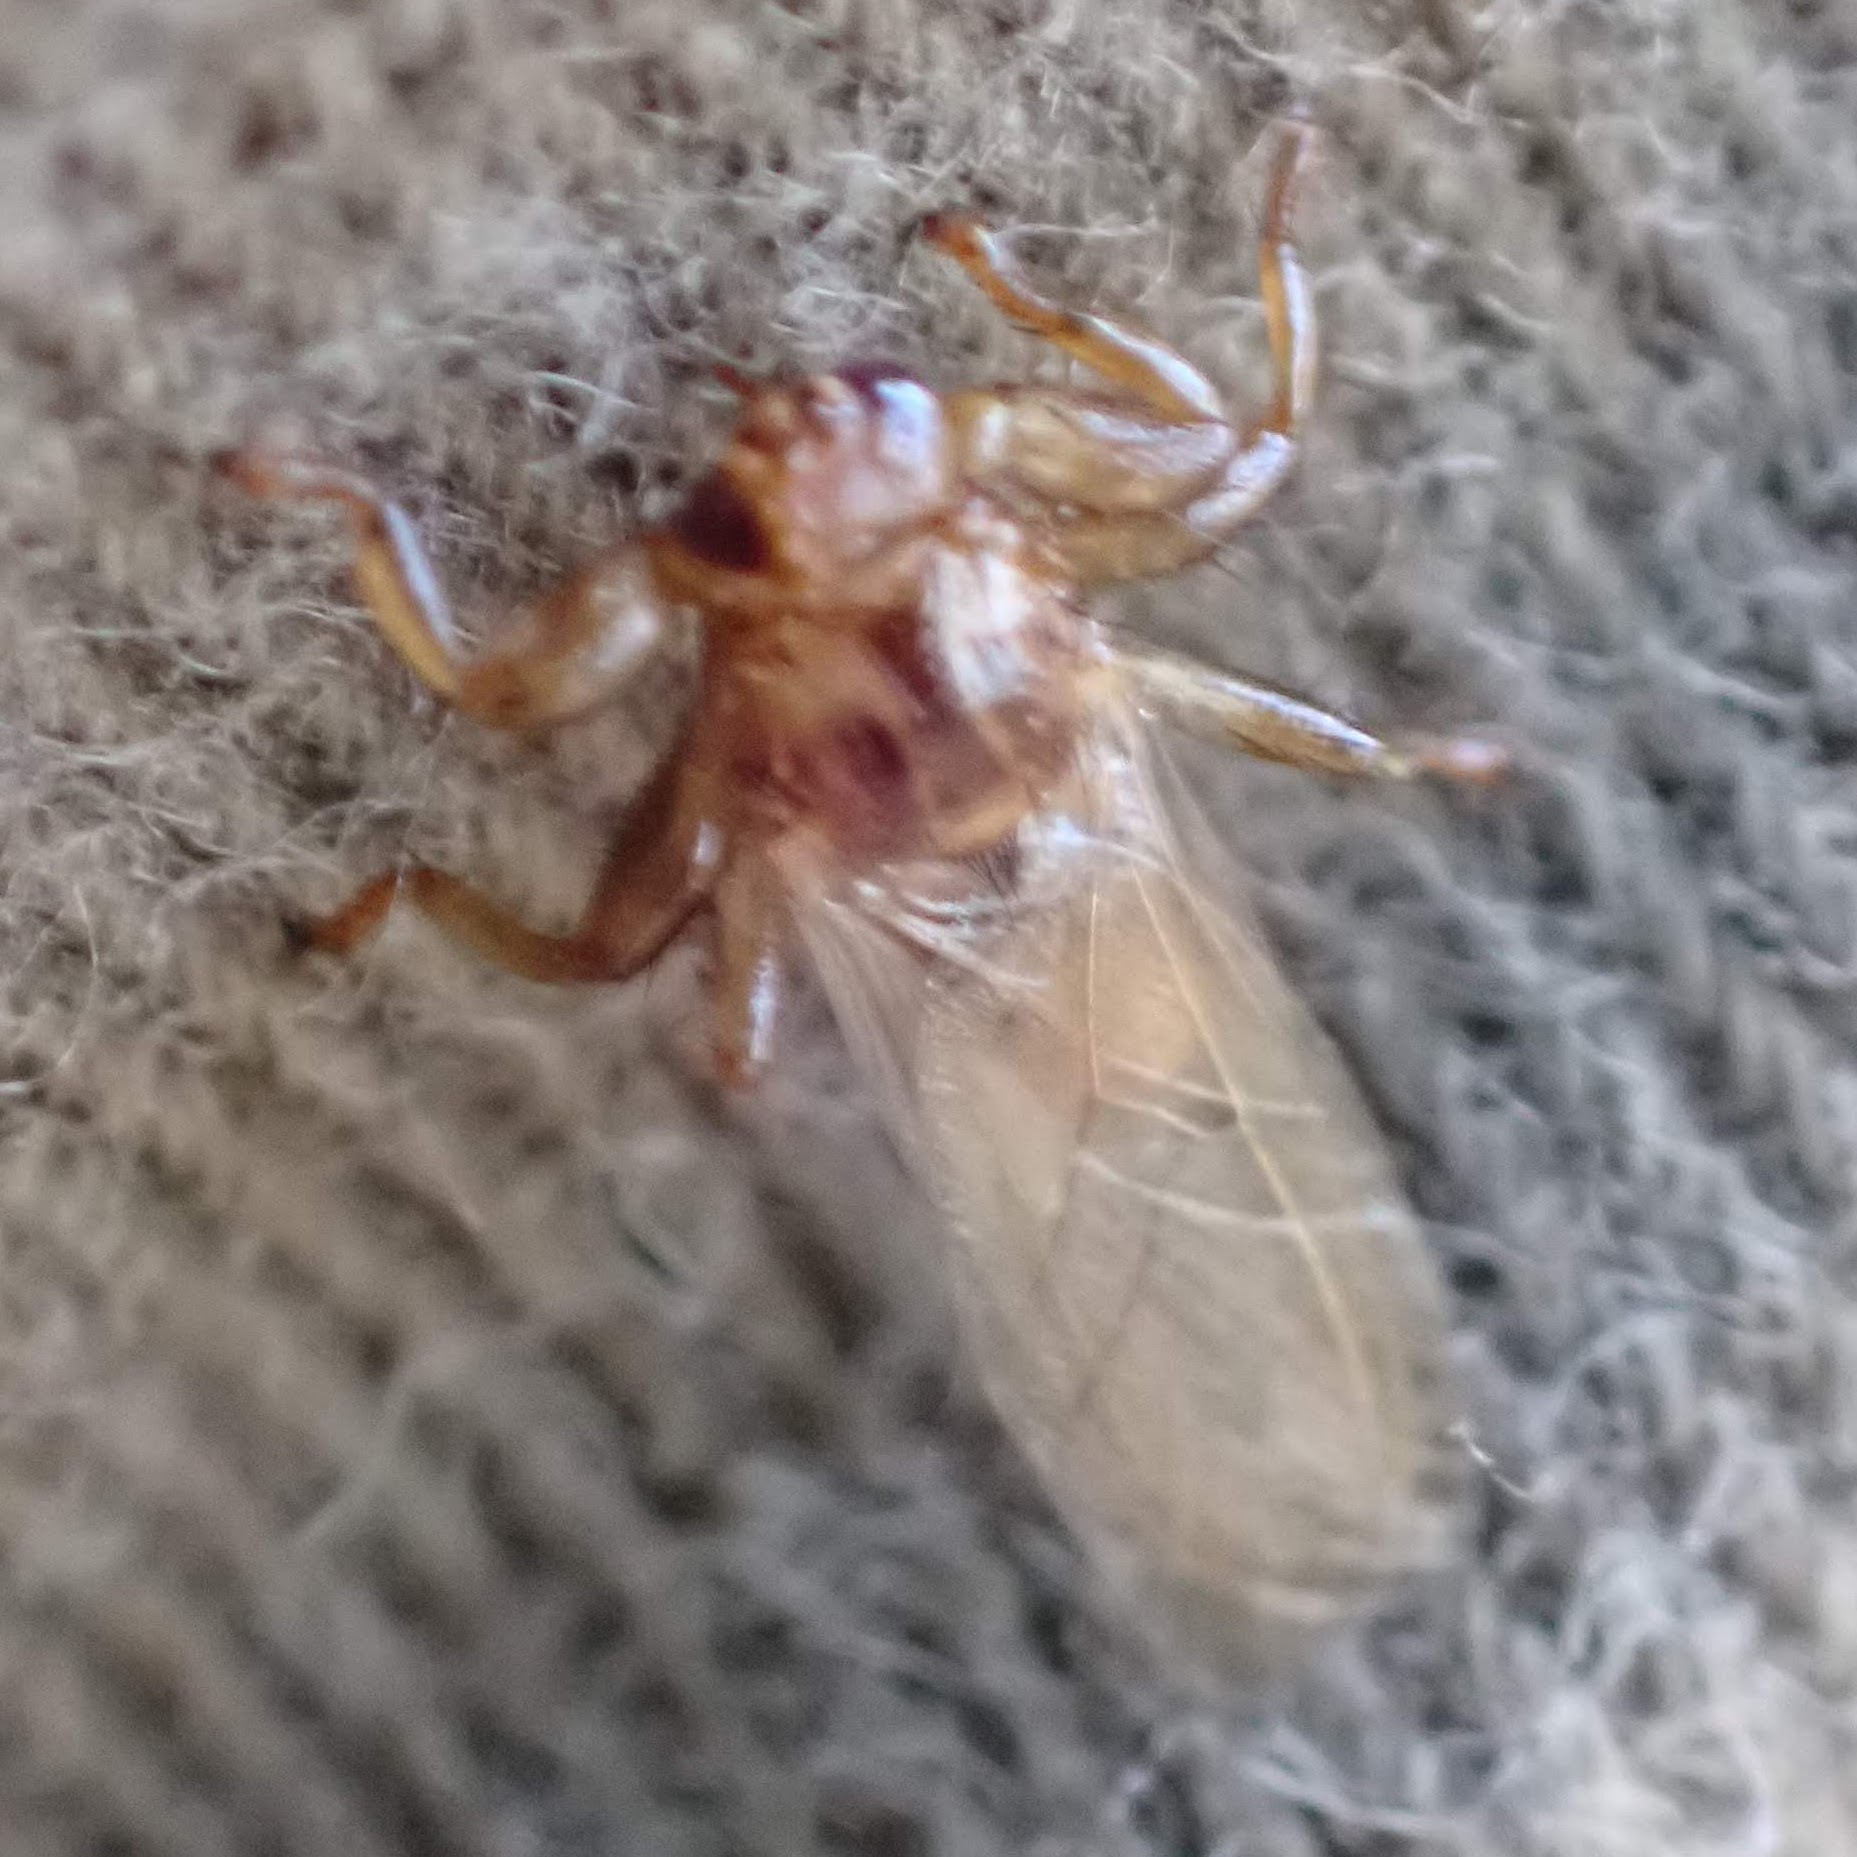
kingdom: Animalia
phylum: Arthropoda
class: Insecta
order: Diptera
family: Hippoboscidae
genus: Lipoptena
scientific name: Lipoptena cervi
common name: Deer ked
